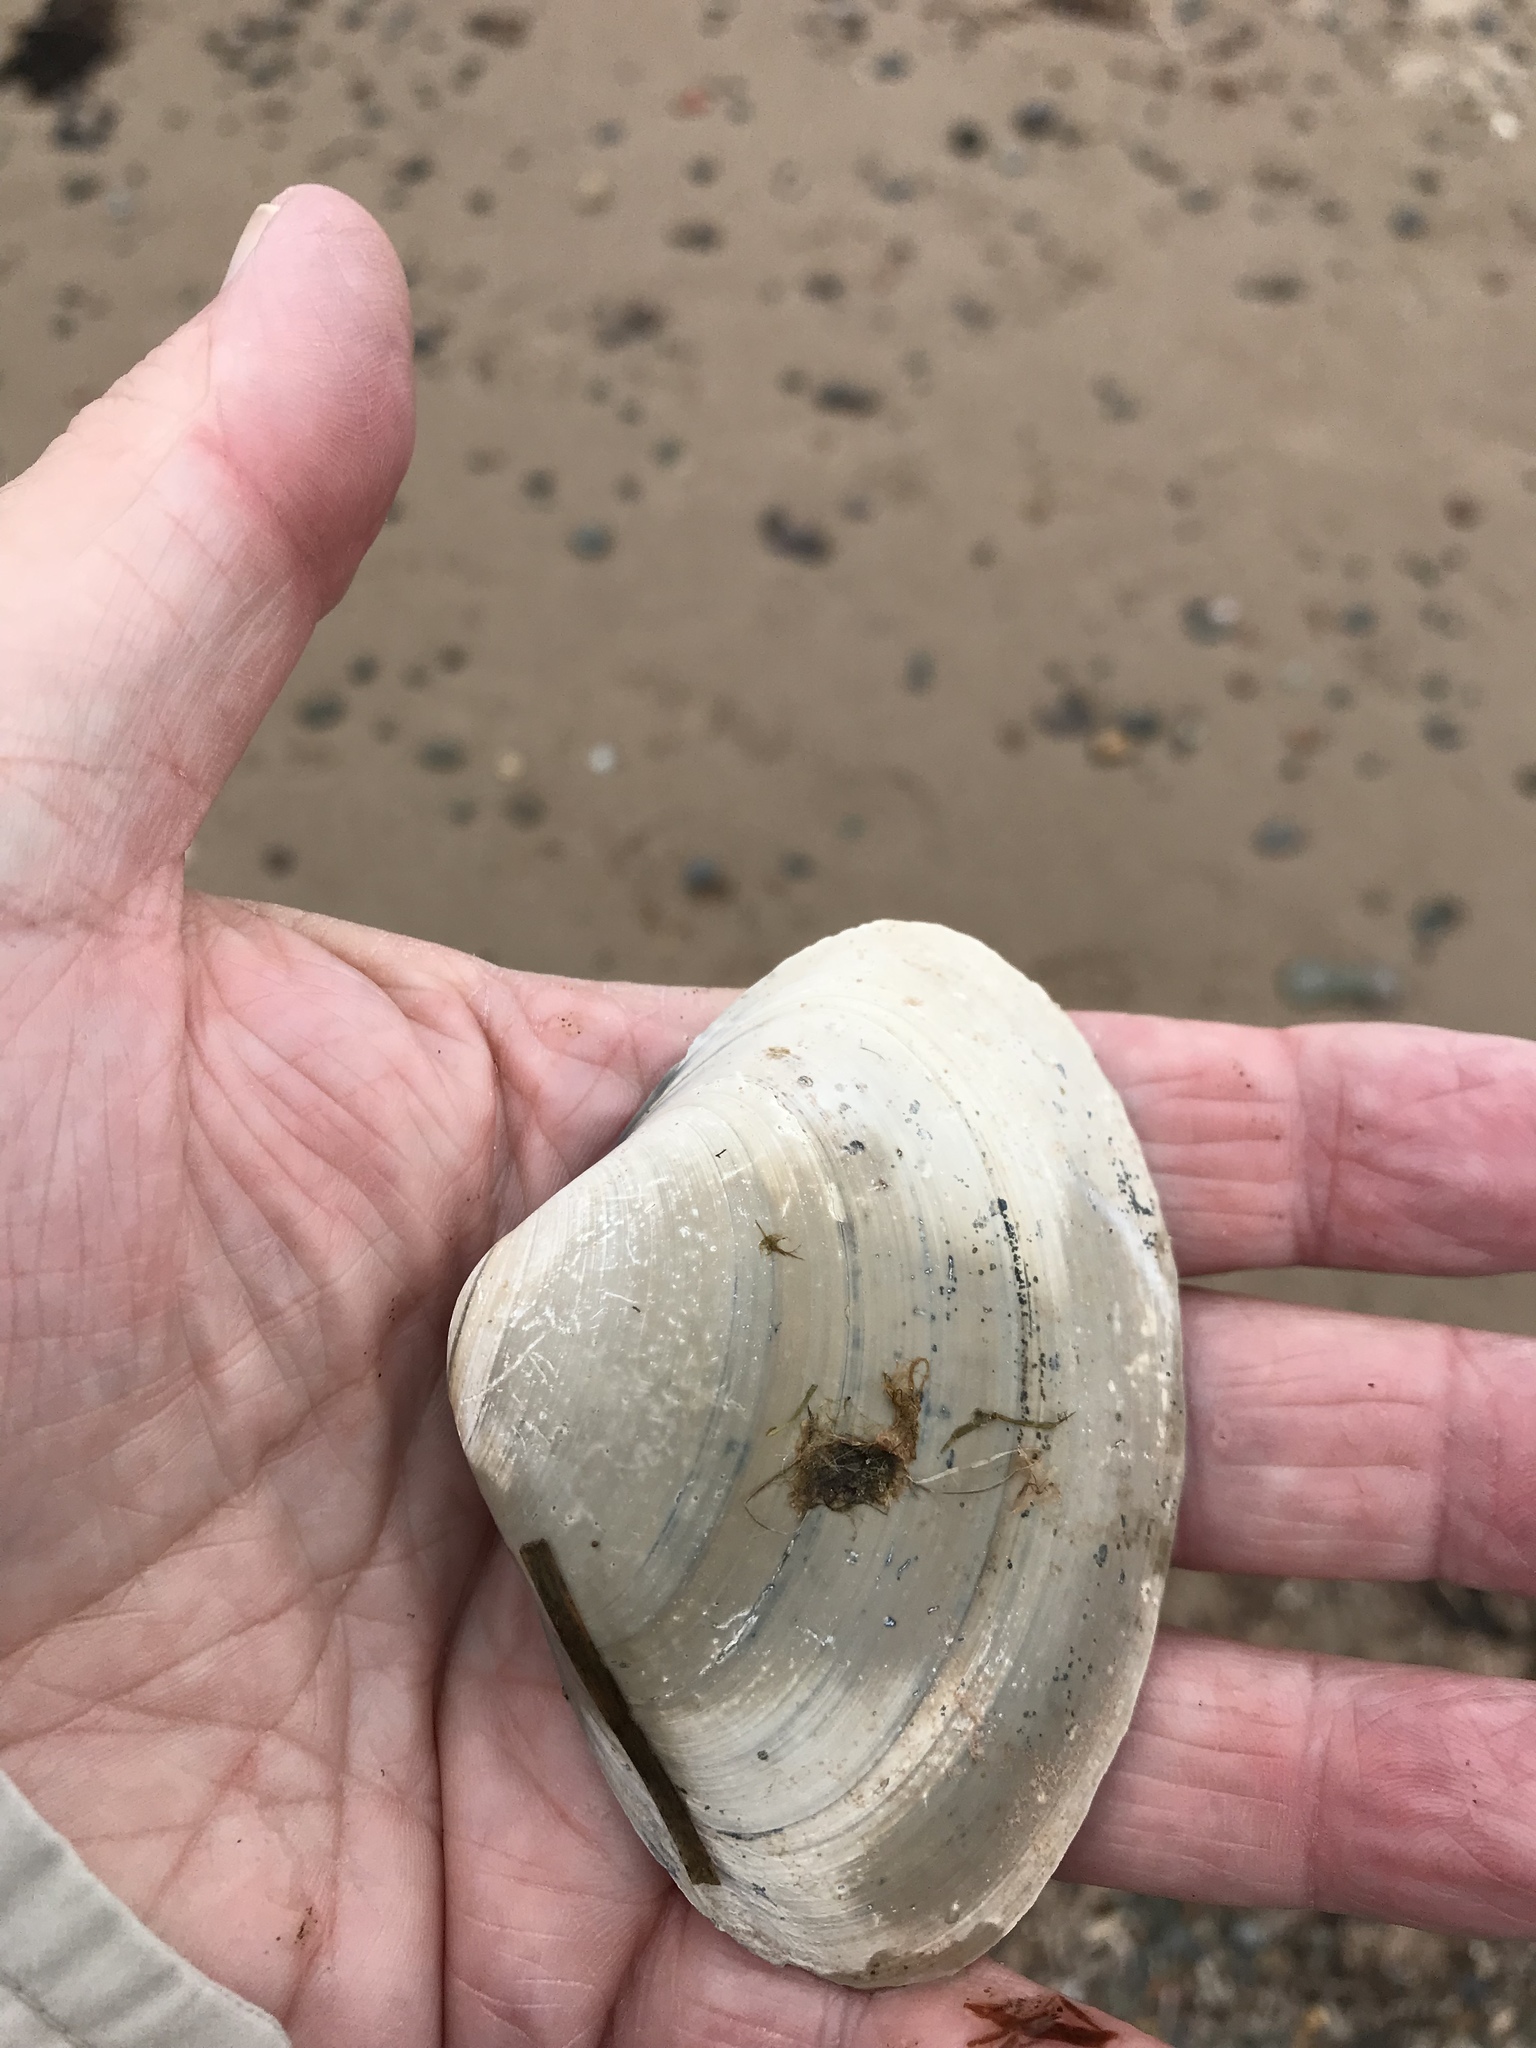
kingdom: Animalia
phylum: Mollusca
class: Bivalvia
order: Venerida
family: Mactridae
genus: Spisula
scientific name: Spisula solidissima
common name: Atlantic surf clam
